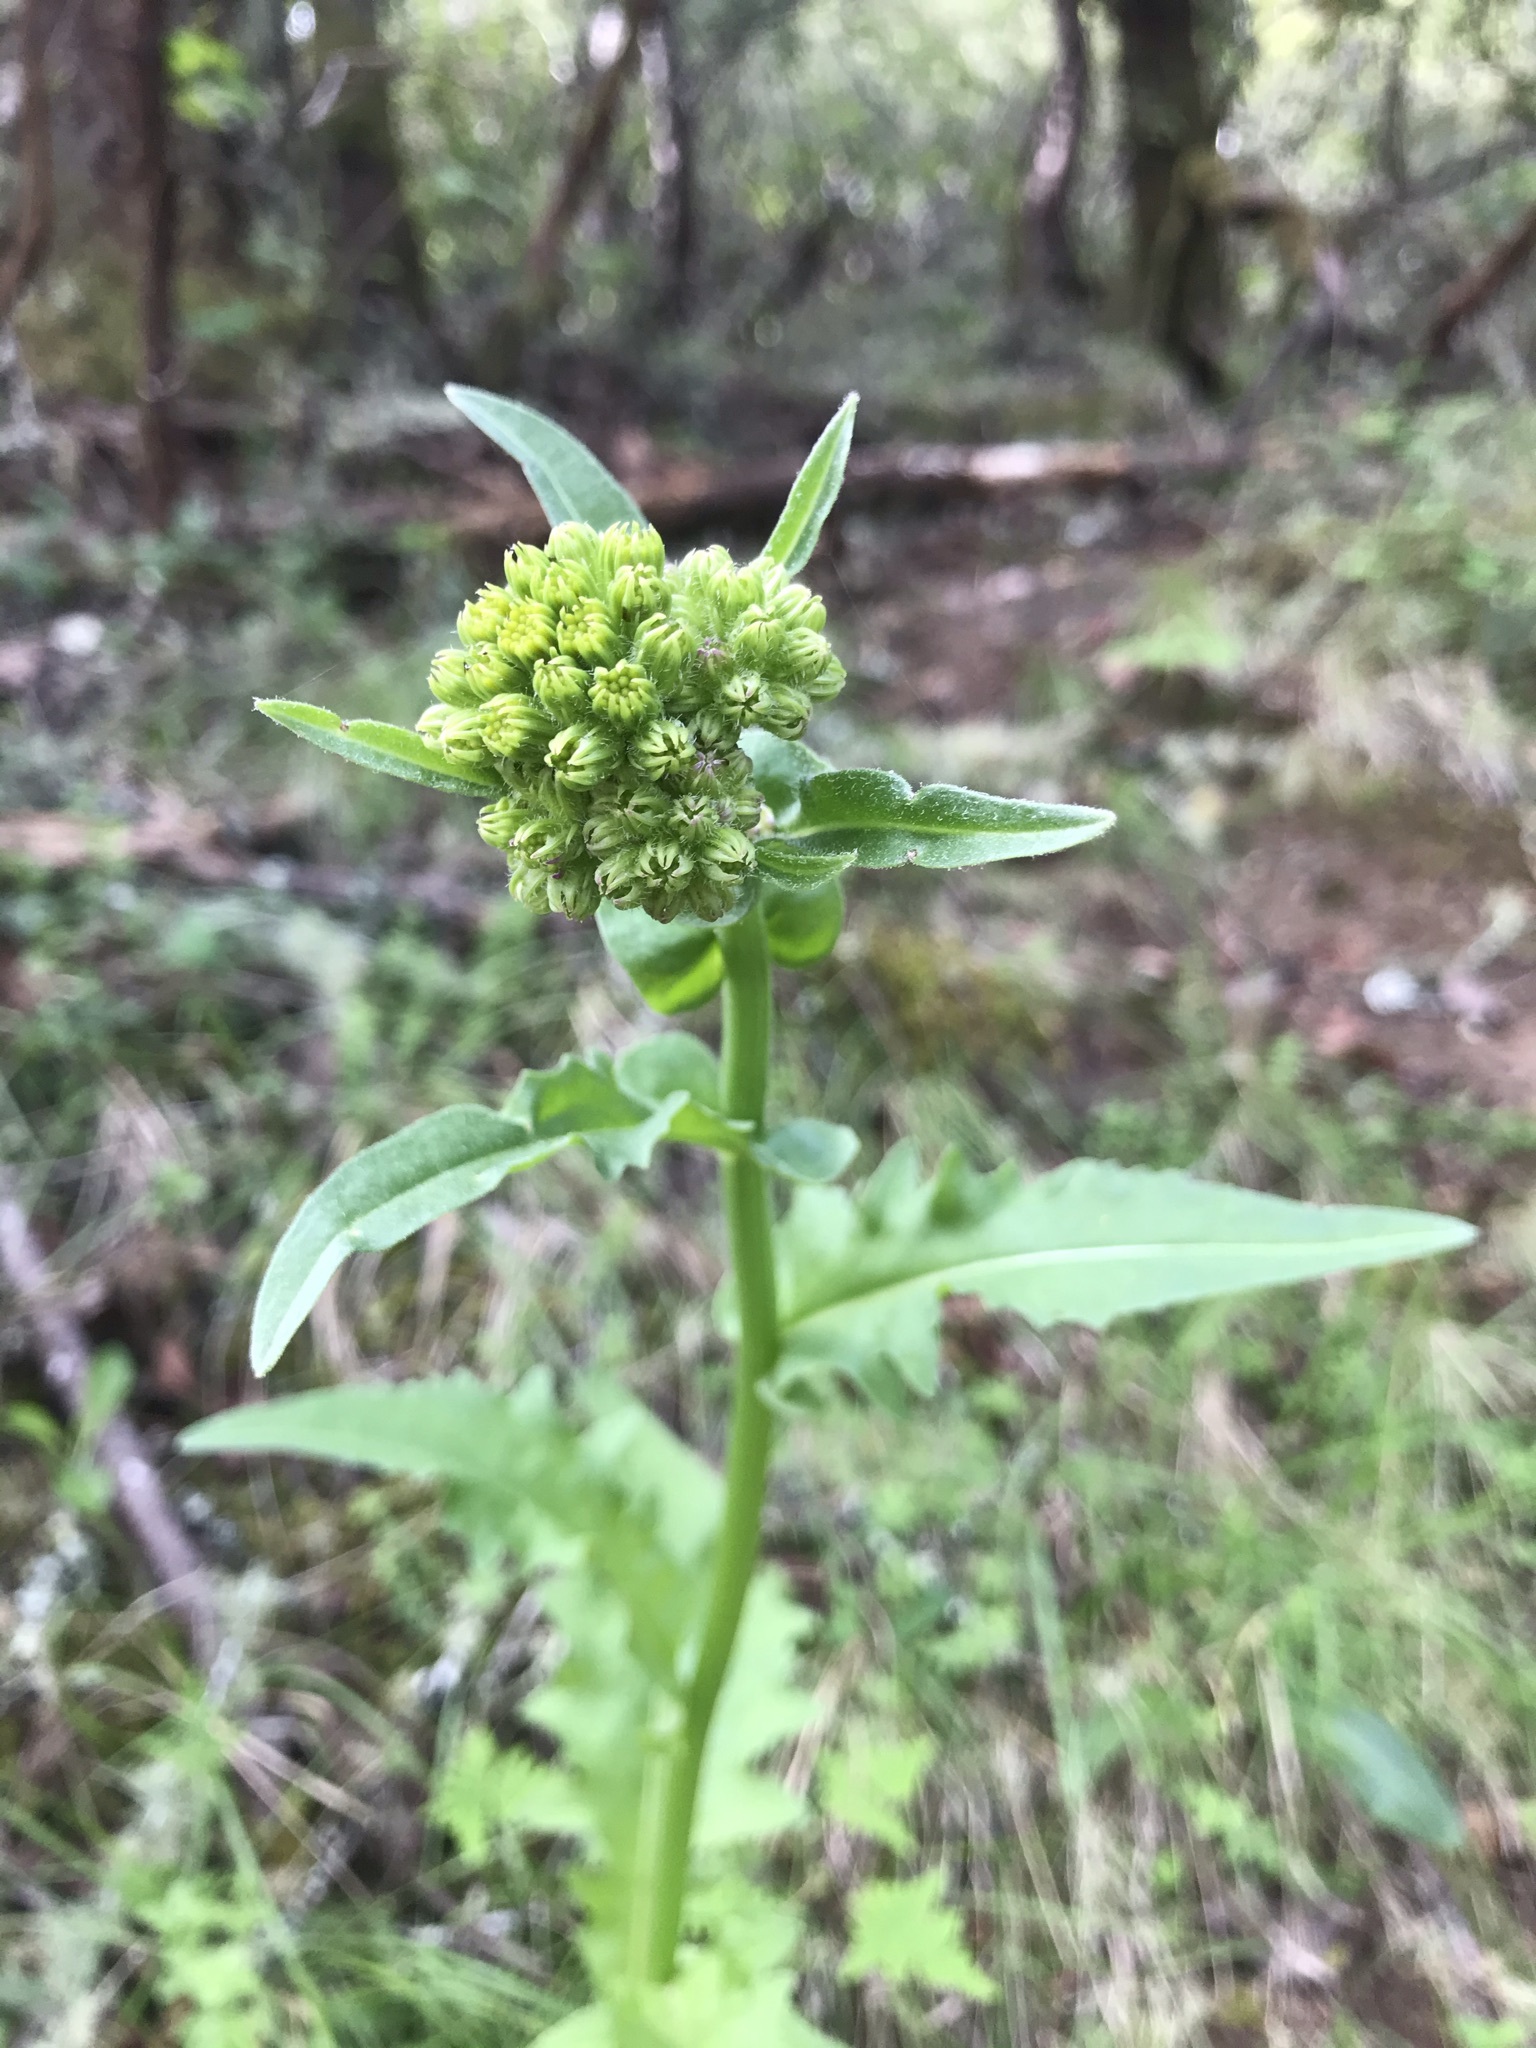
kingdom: Plantae
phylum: Tracheophyta
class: Magnoliopsida
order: Asterales
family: Asteraceae
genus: Senecio
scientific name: Senecio aronicoides
